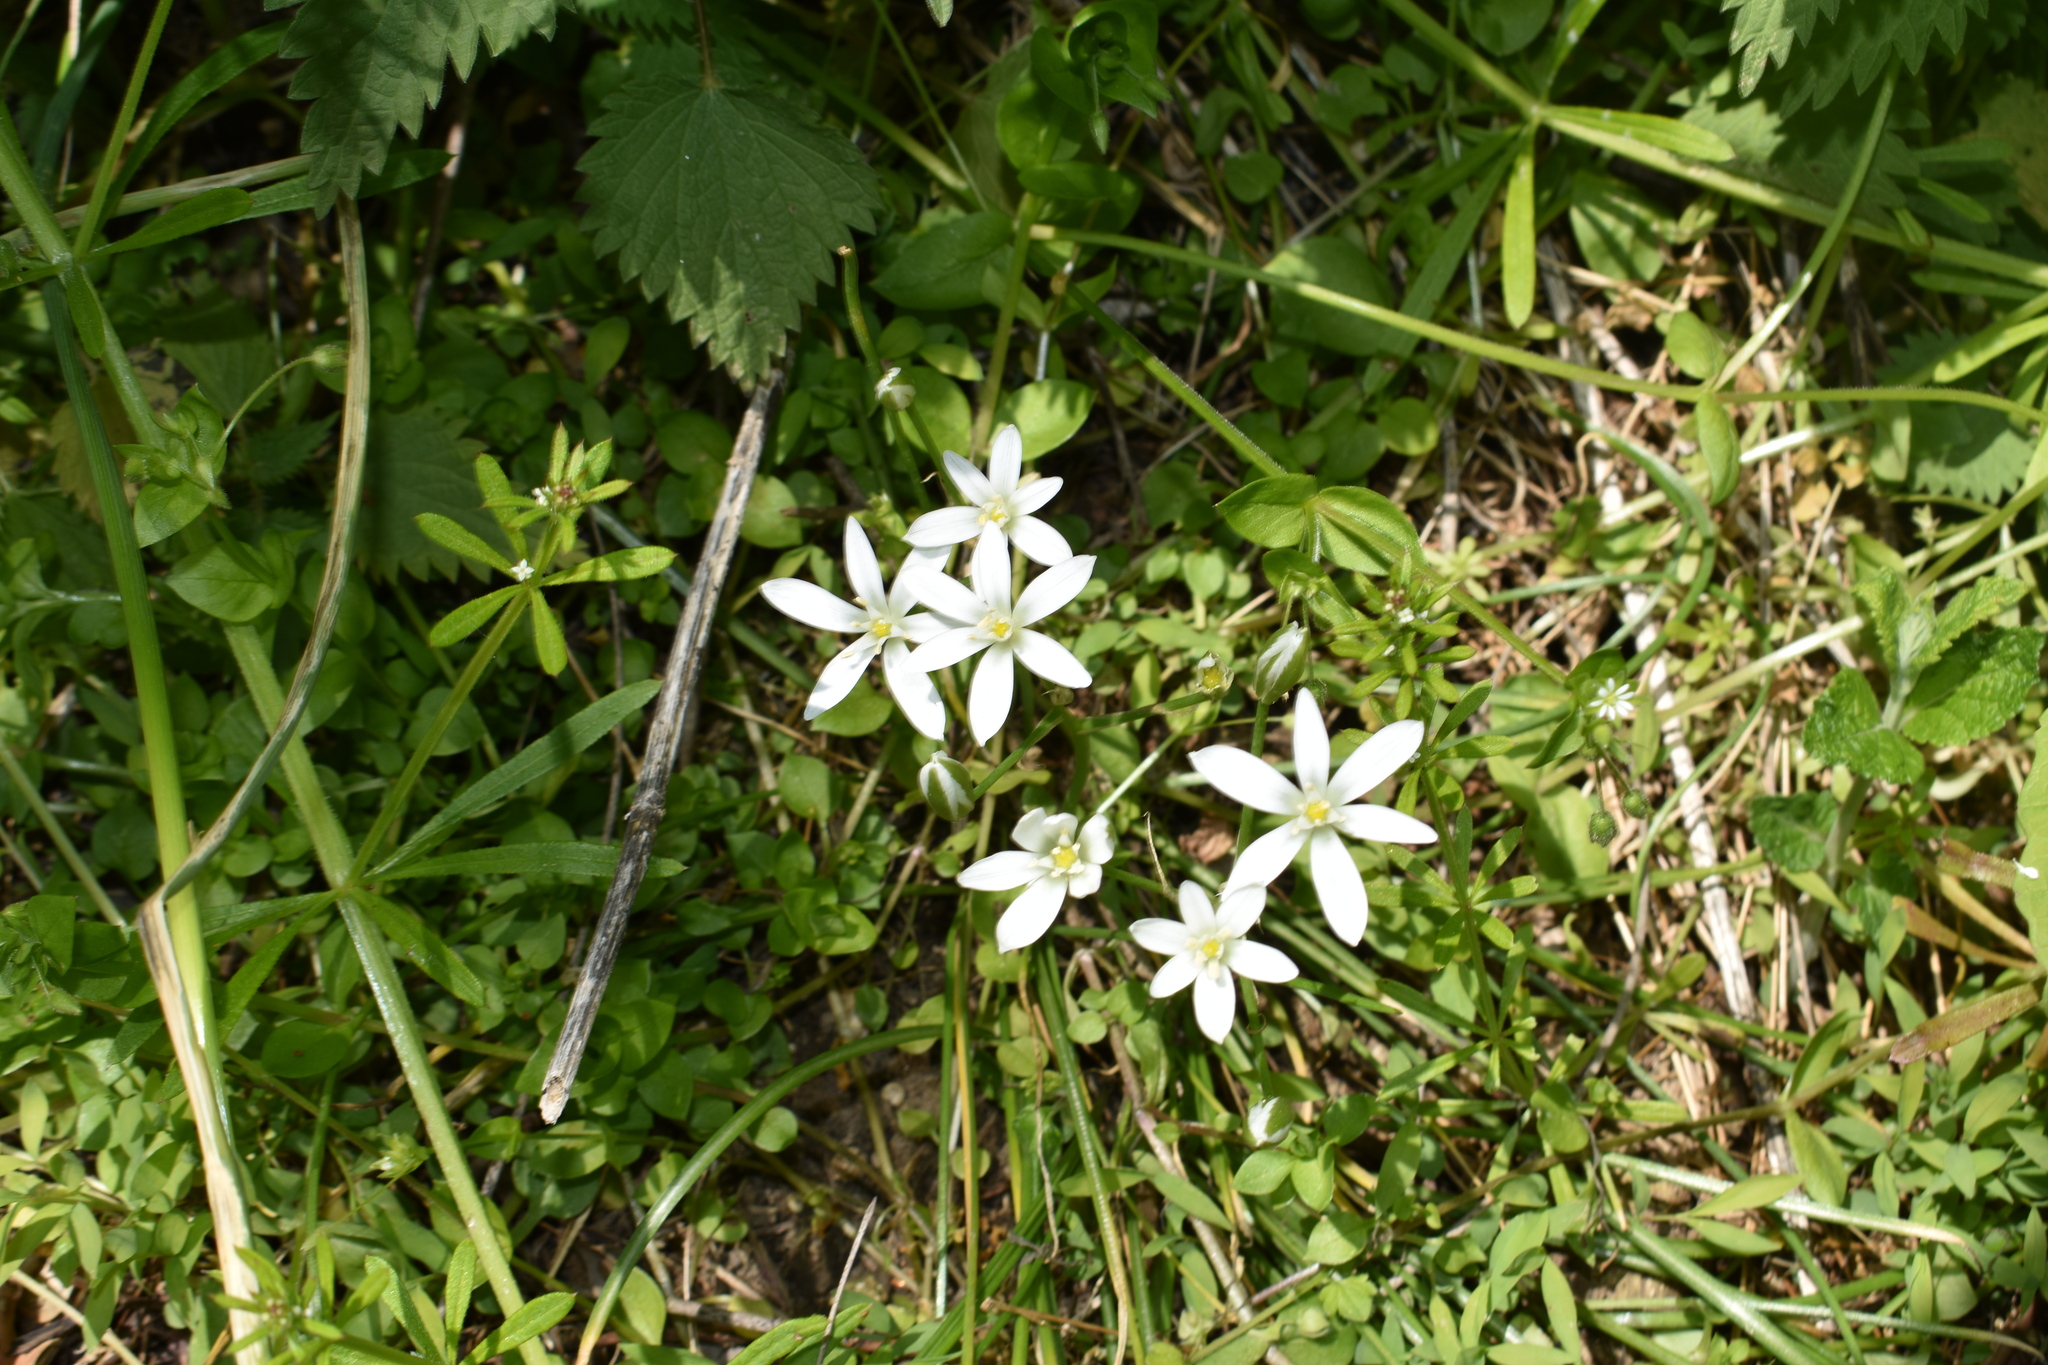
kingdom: Plantae
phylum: Tracheophyta
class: Liliopsida
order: Asparagales
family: Asparagaceae
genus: Ornithogalum
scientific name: Ornithogalum umbellatum
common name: Garden star-of-bethlehem
